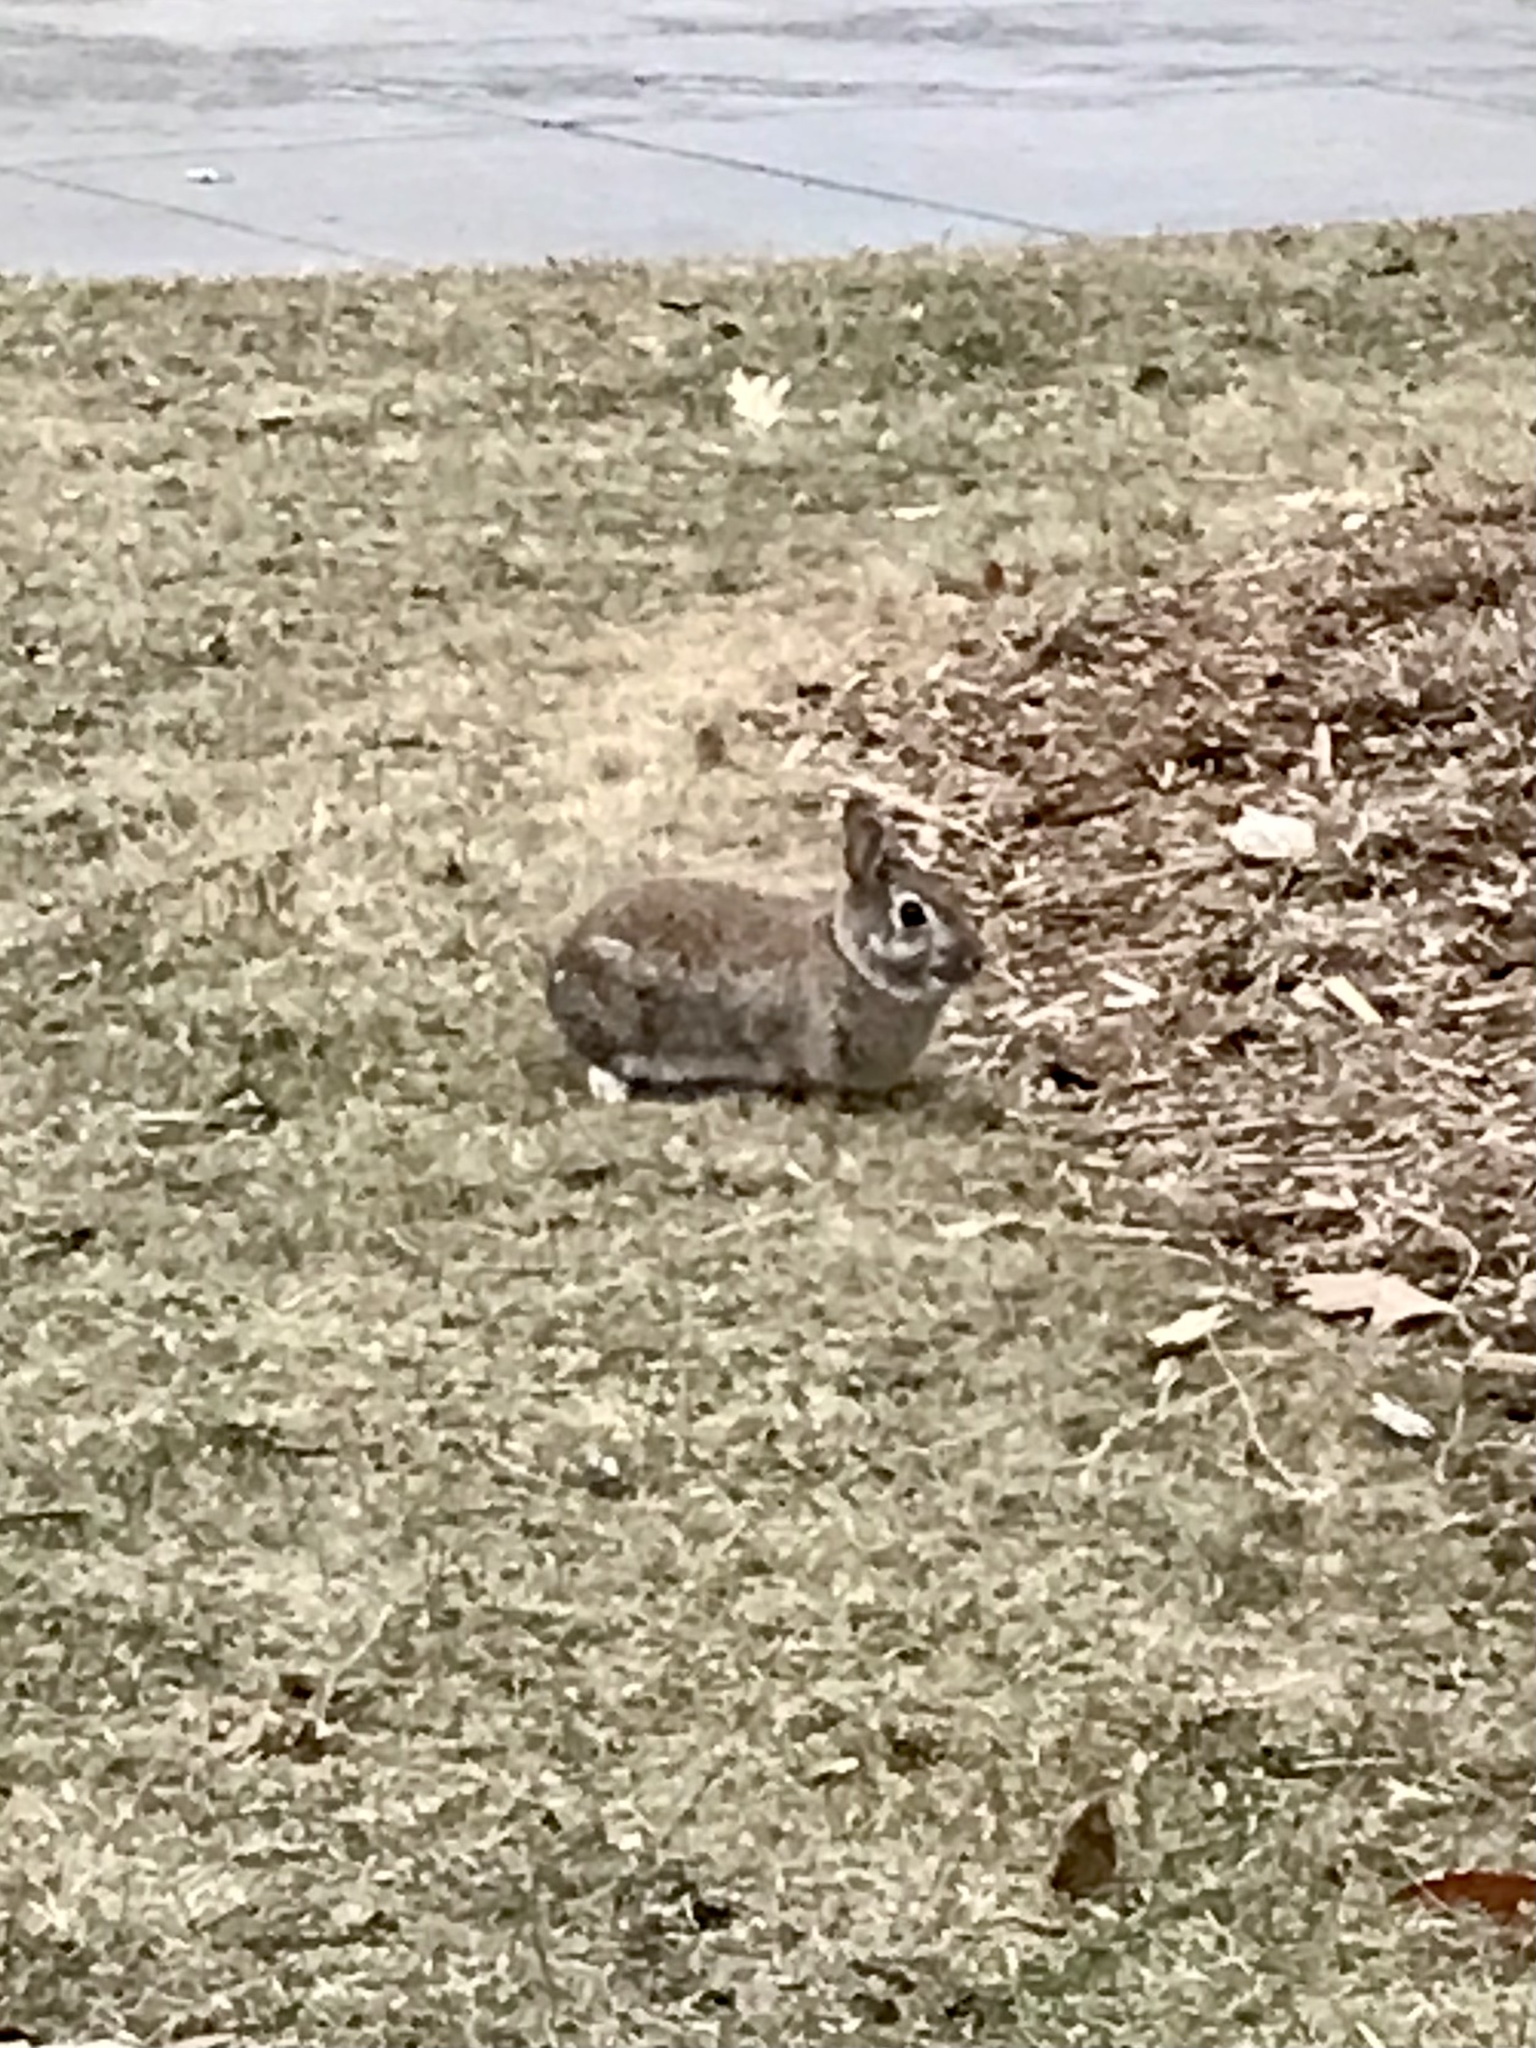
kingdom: Animalia
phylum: Chordata
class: Mammalia
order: Lagomorpha
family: Leporidae
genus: Sylvilagus
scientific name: Sylvilagus floridanus
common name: Eastern cottontail
